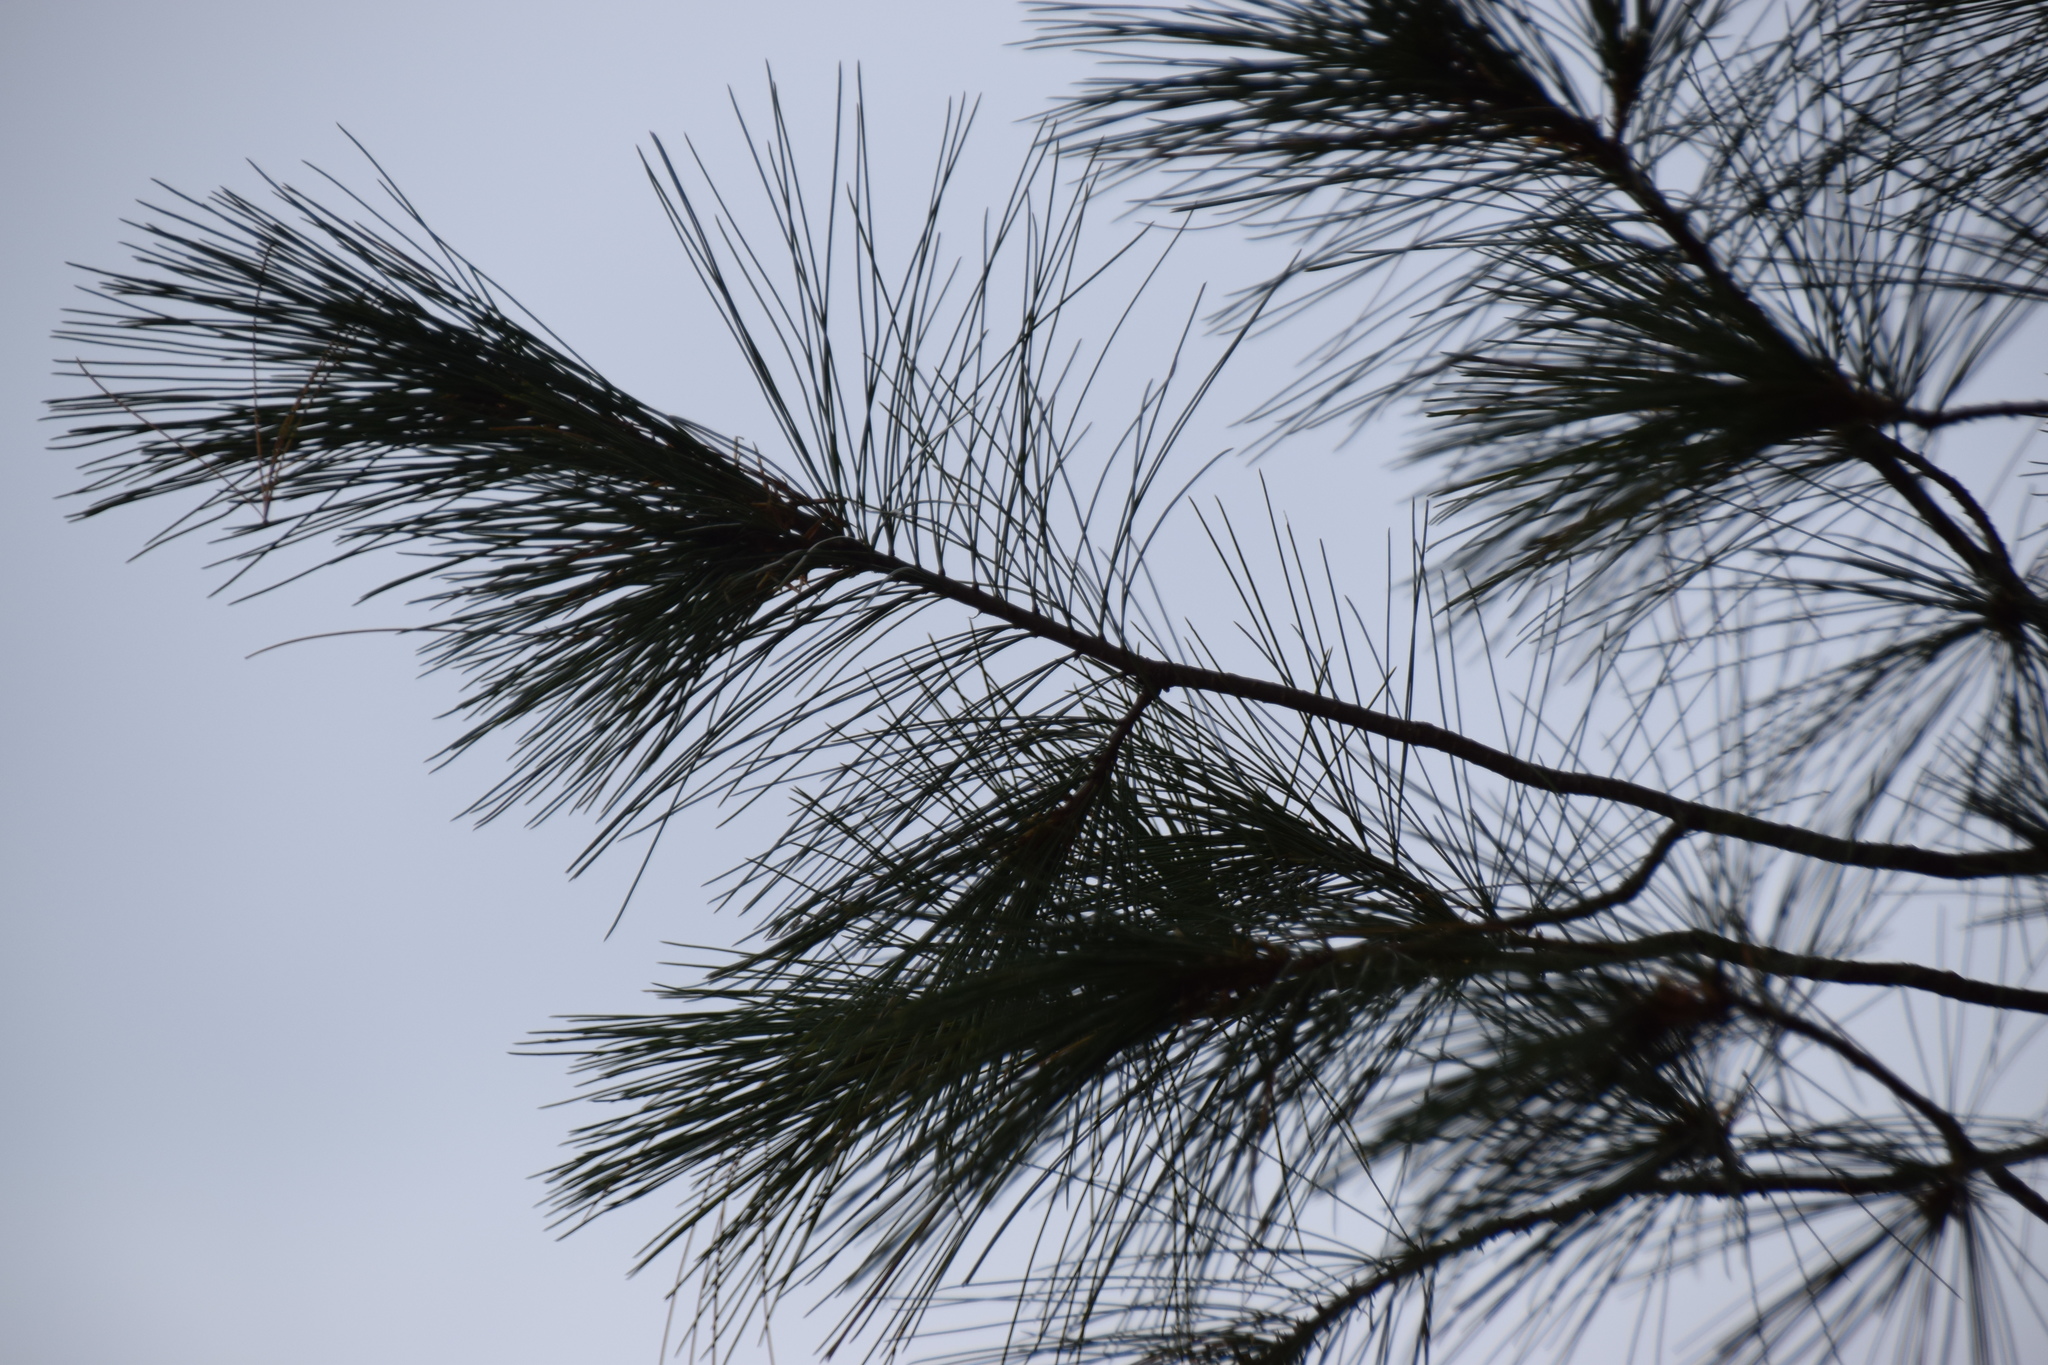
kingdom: Plantae
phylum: Tracheophyta
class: Pinopsida
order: Pinales
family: Pinaceae
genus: Pinus
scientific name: Pinus strobus
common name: Weymouth pine
